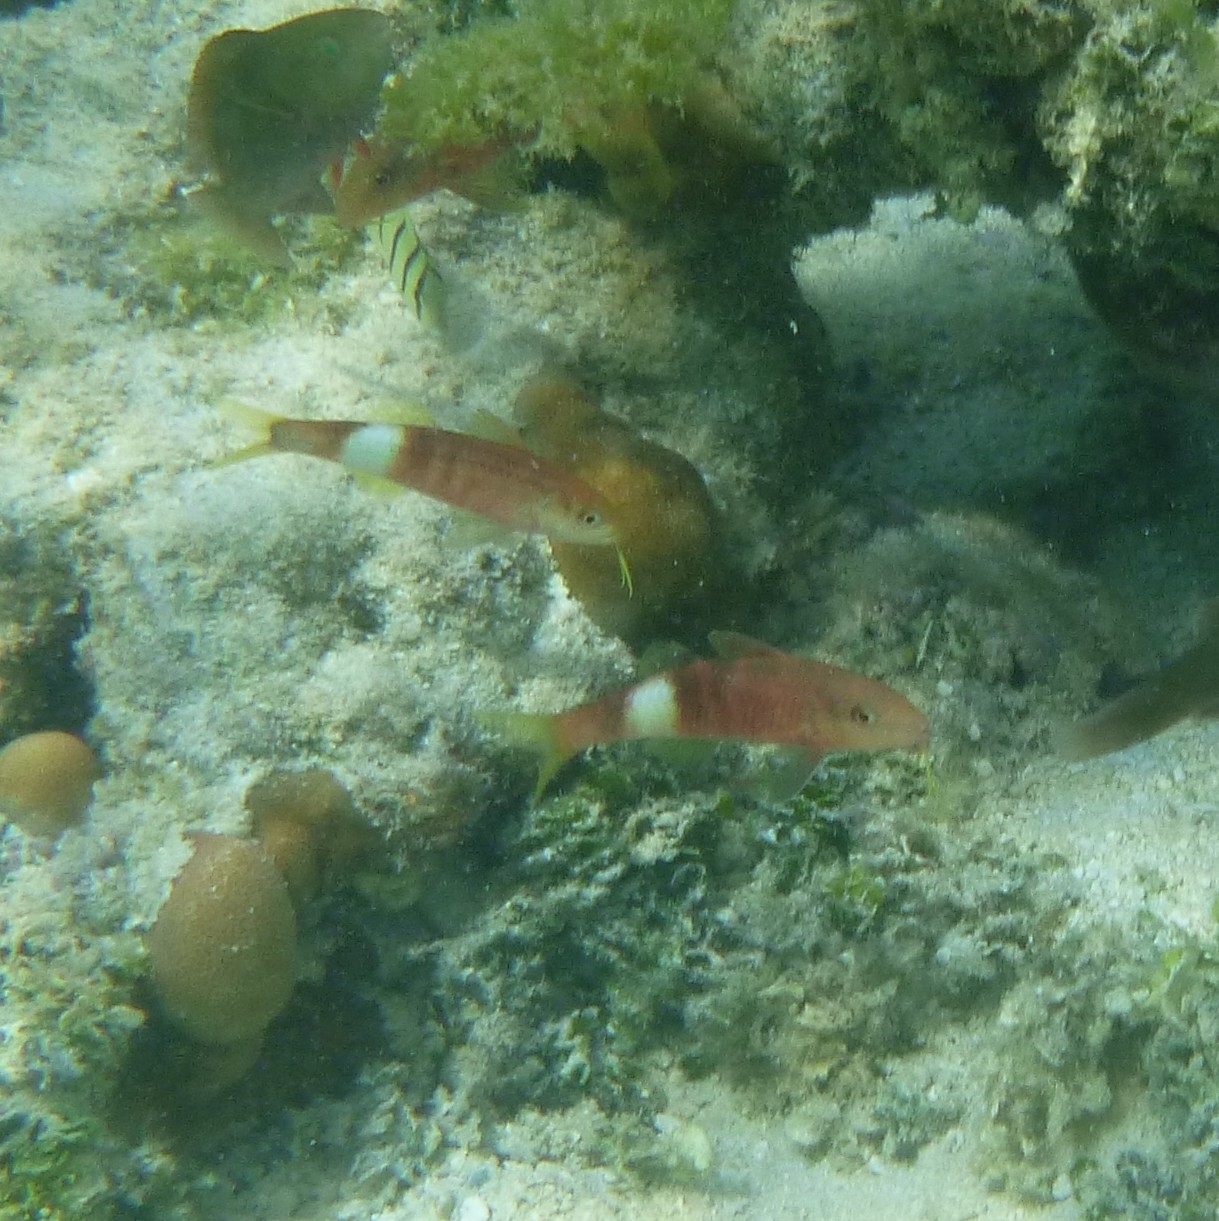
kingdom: Animalia
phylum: Chordata
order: Perciformes
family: Mullidae
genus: Parupeneus
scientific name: Parupeneus multifasciatus
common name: Manybar goatfish
